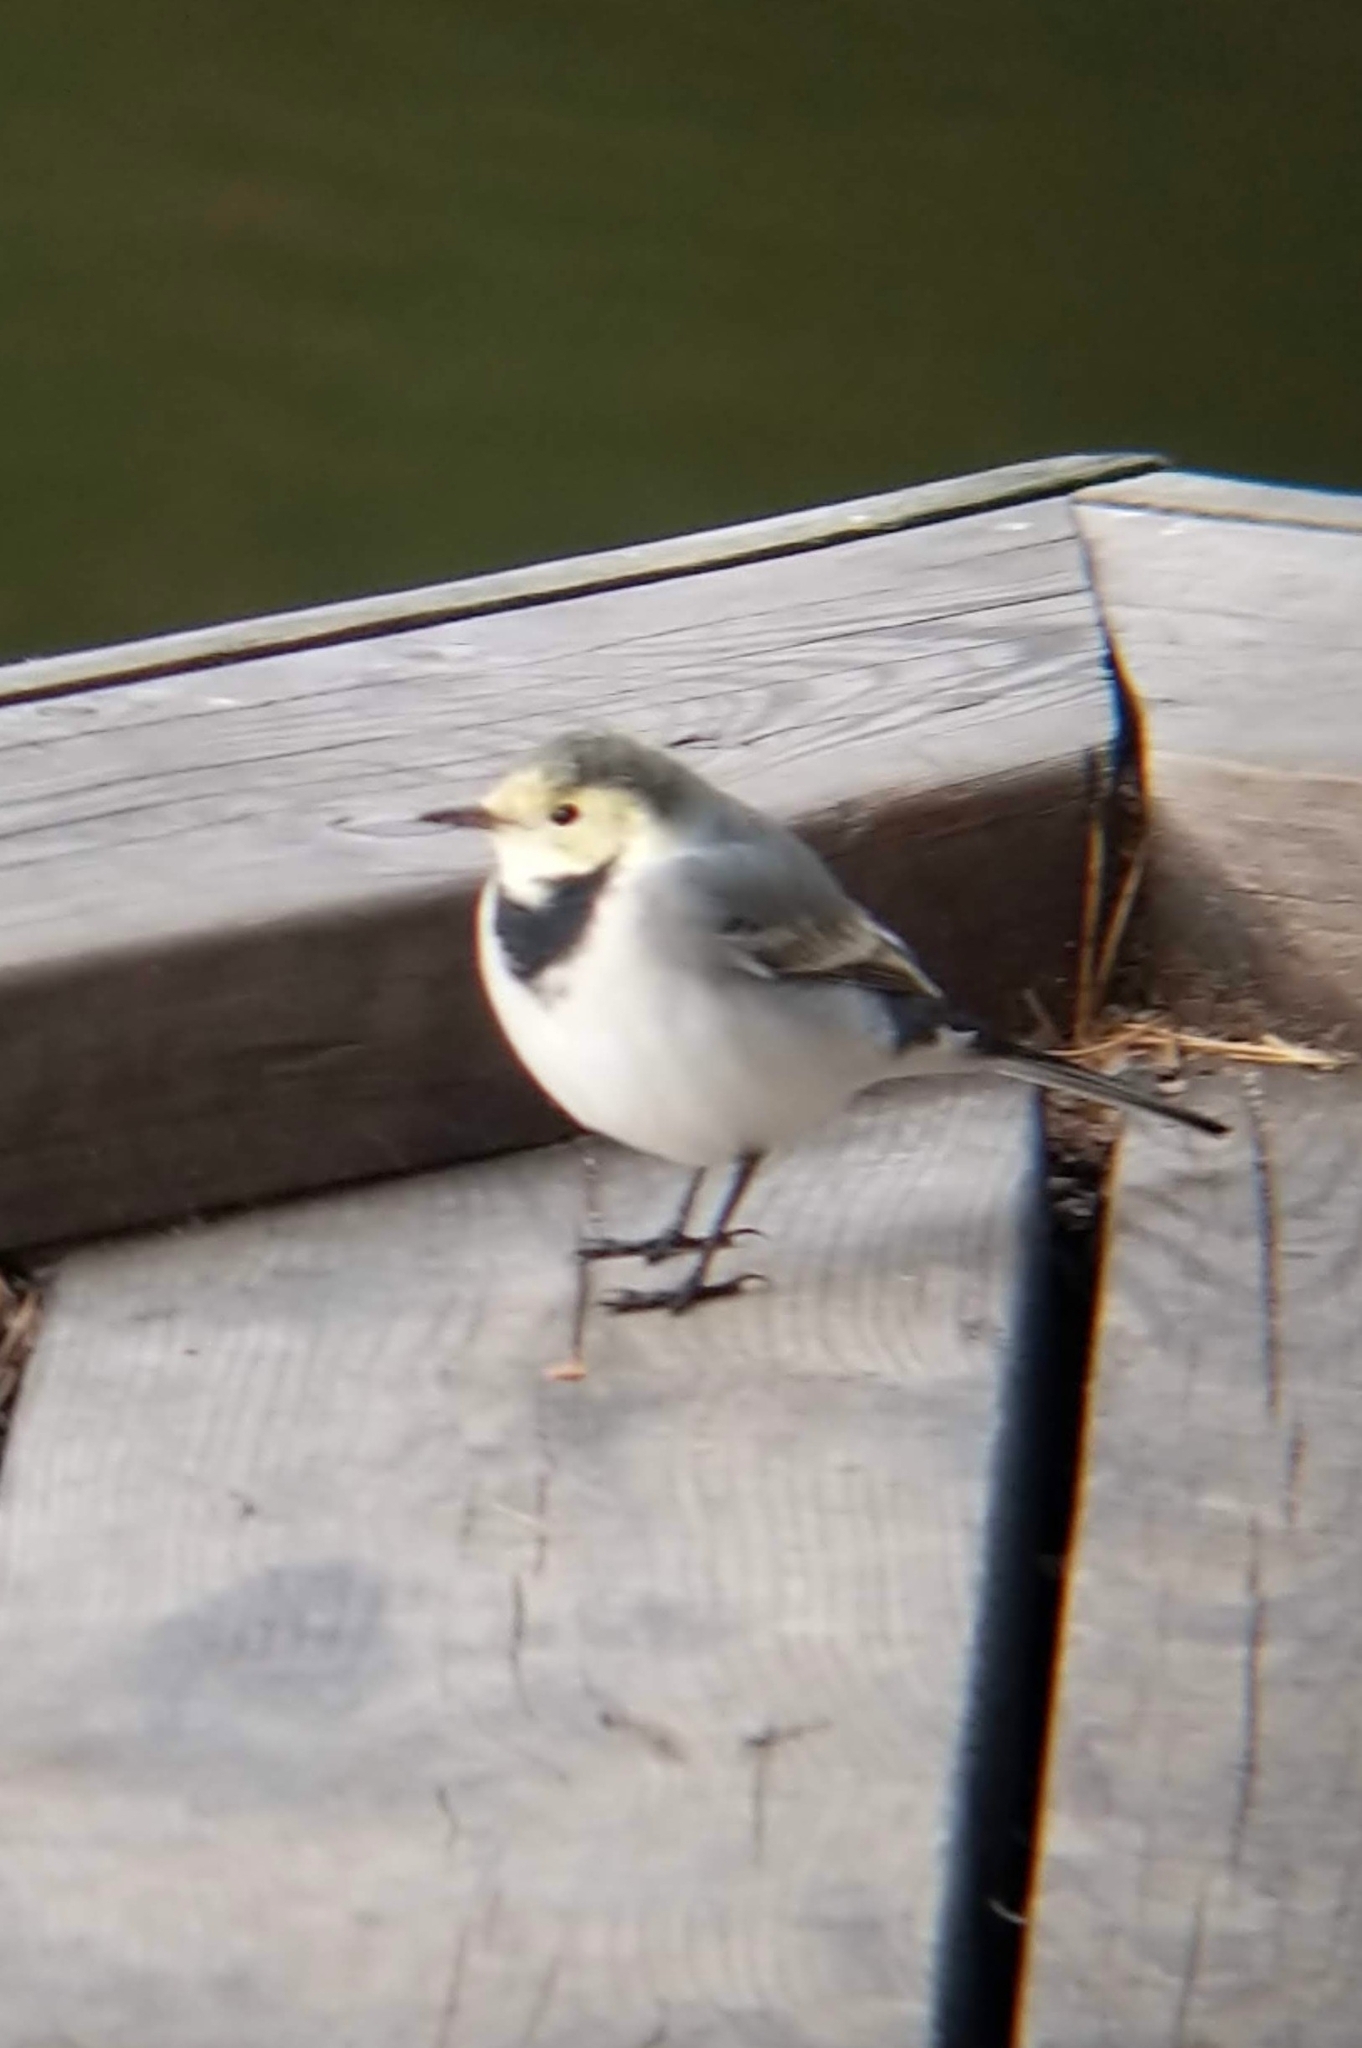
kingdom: Animalia
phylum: Chordata
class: Aves
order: Passeriformes
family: Motacillidae
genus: Motacilla
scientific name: Motacilla alba
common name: White wagtail
